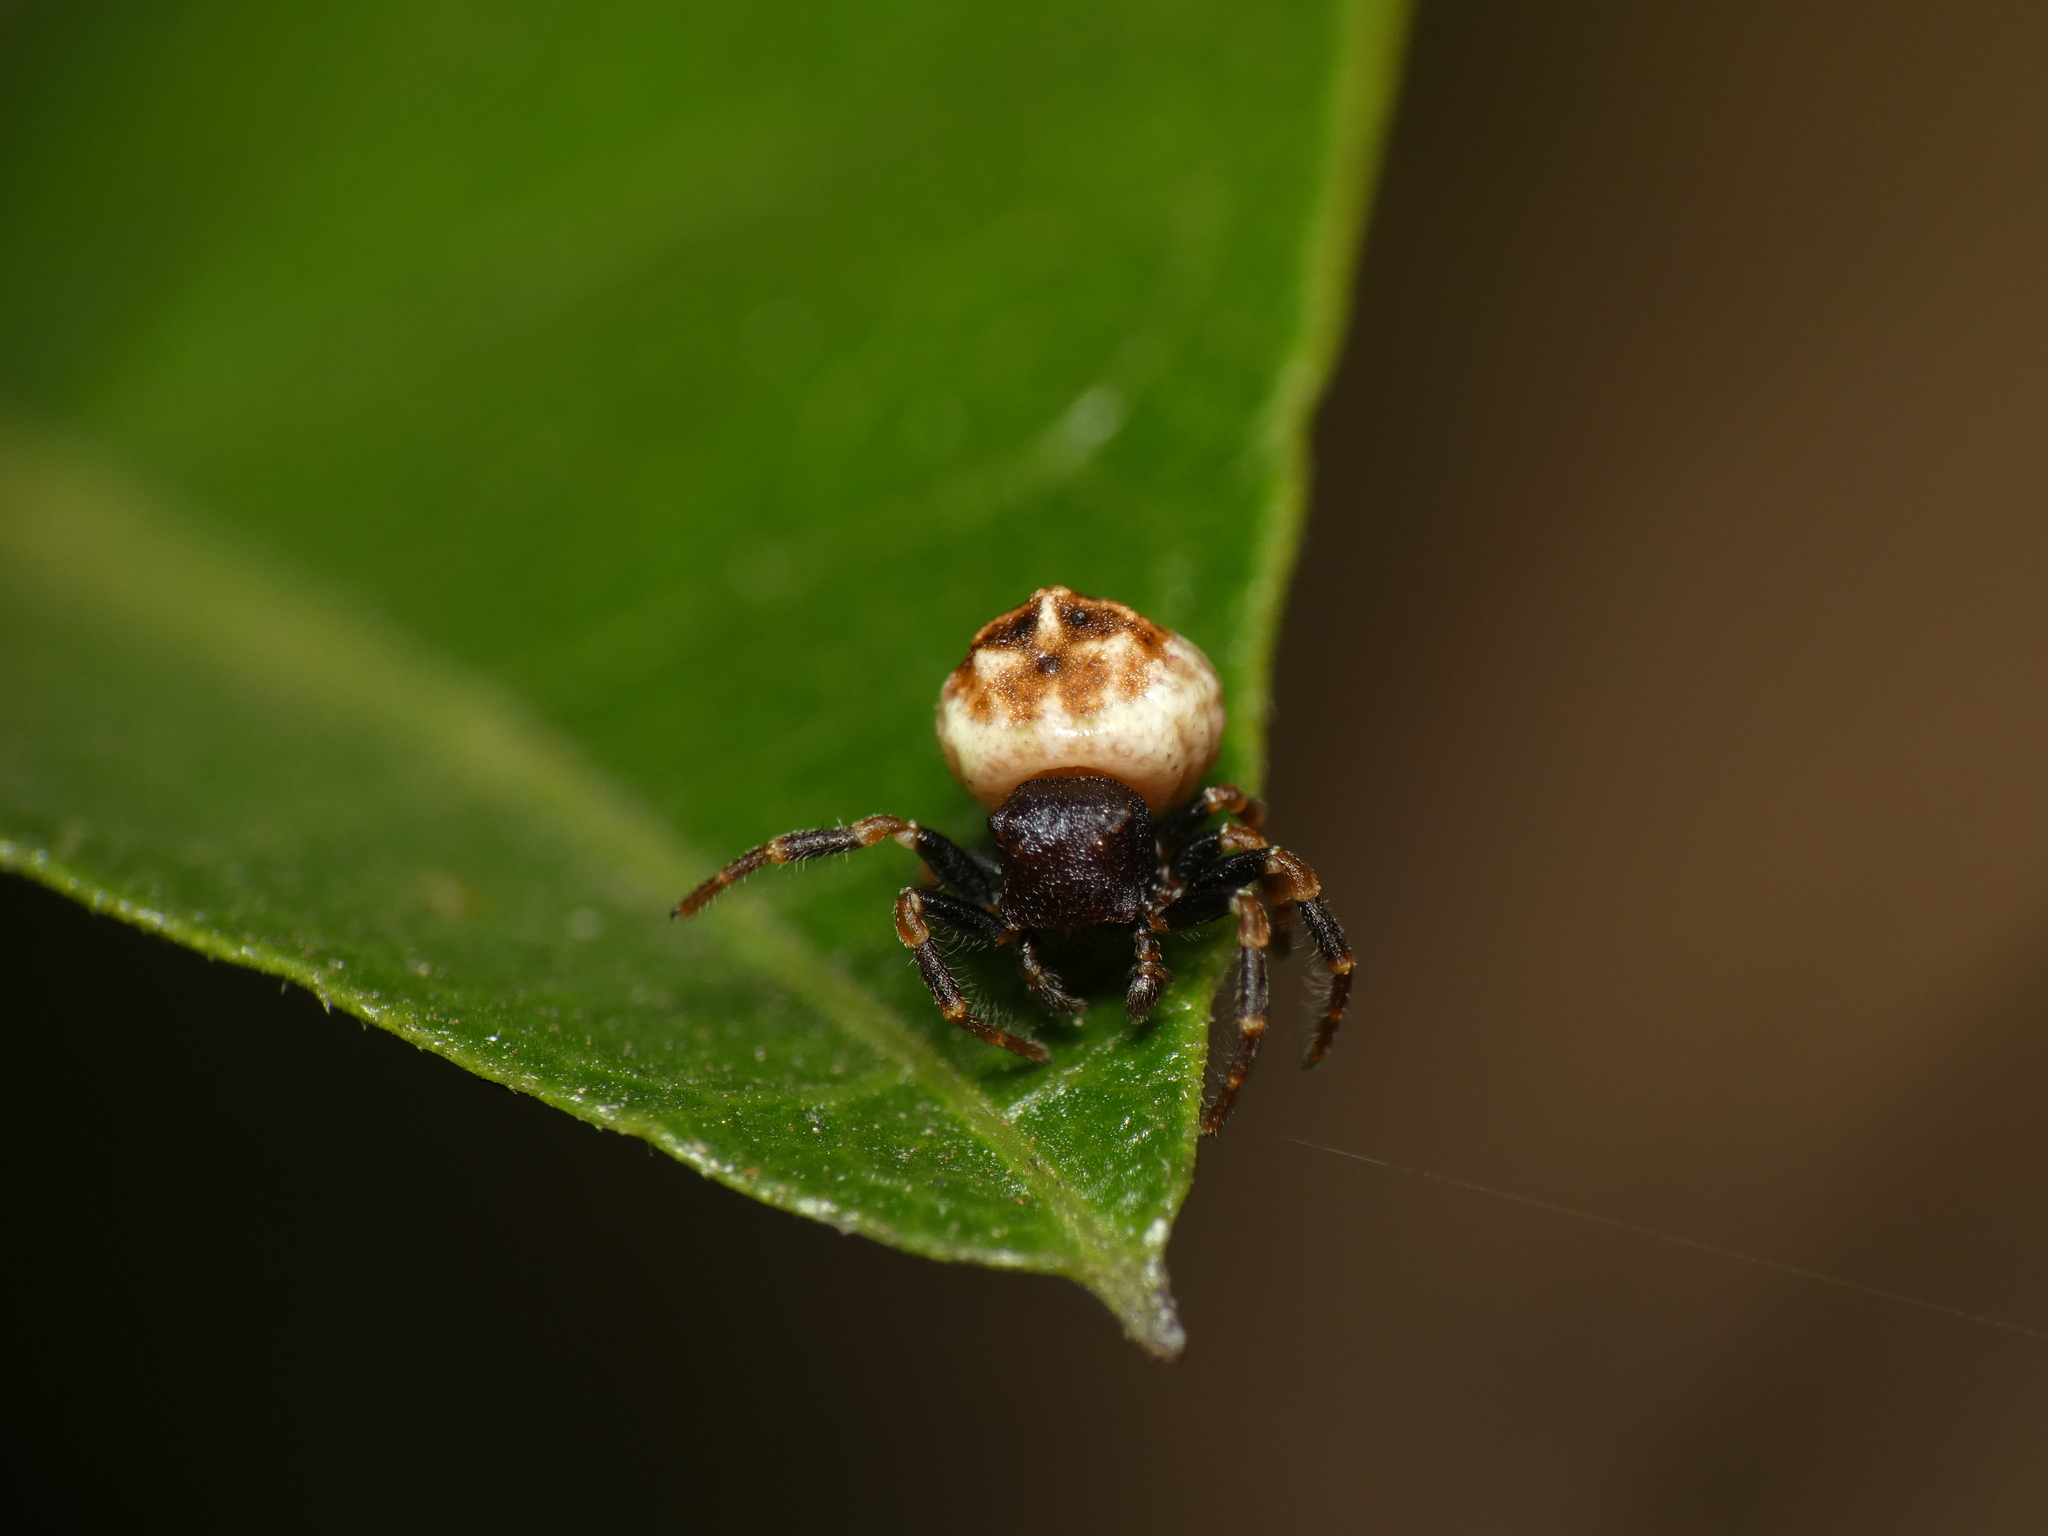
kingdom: Animalia
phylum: Arthropoda
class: Arachnida
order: Araneae
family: Thomisidae
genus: Parabomis
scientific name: Parabomis megae
